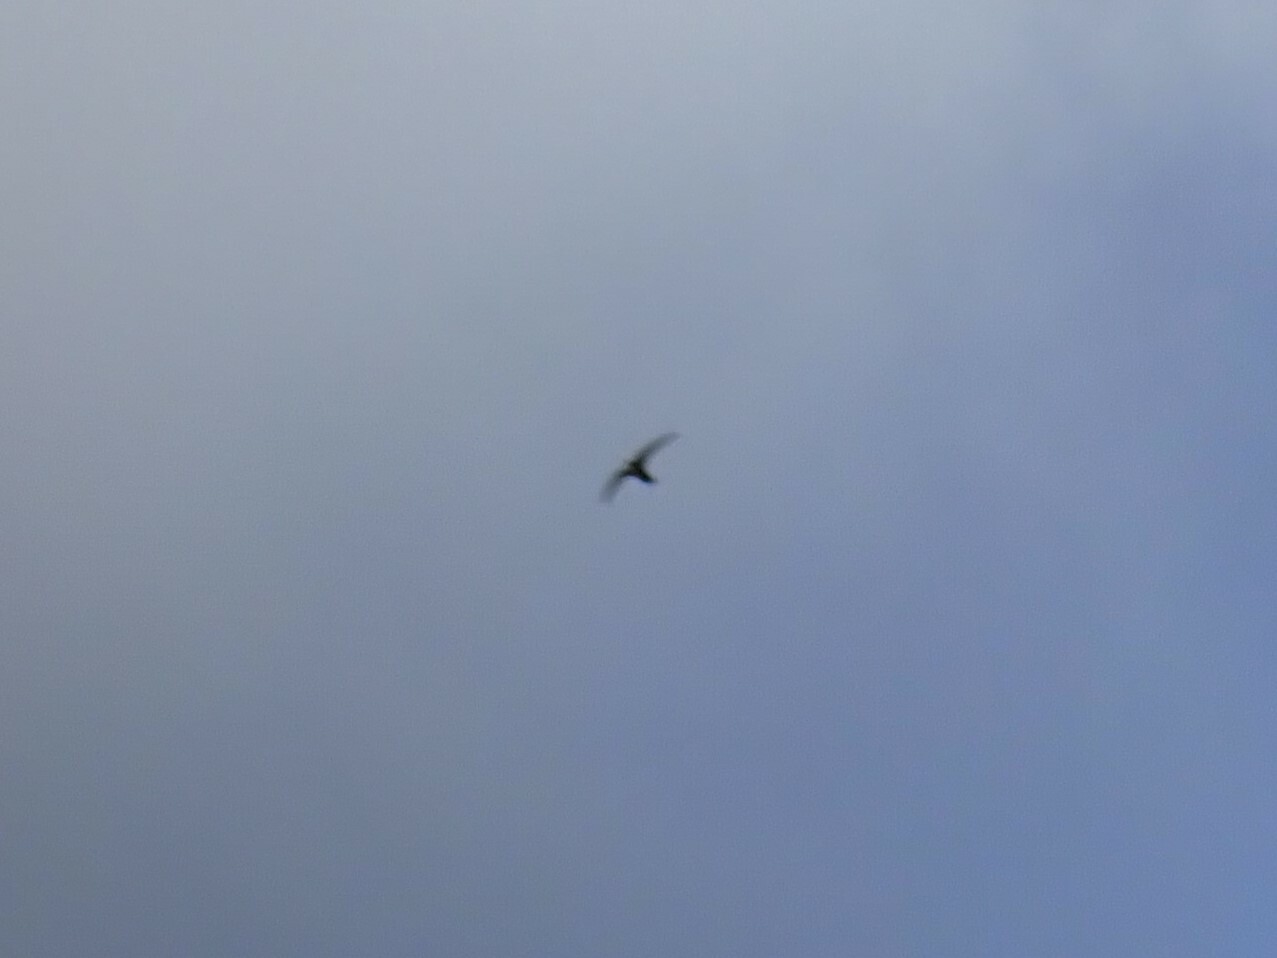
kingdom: Animalia
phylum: Chordata
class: Aves
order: Apodiformes
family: Apodidae
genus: Tachornis
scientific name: Tachornis phoenicobia
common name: Antillean palm swift
